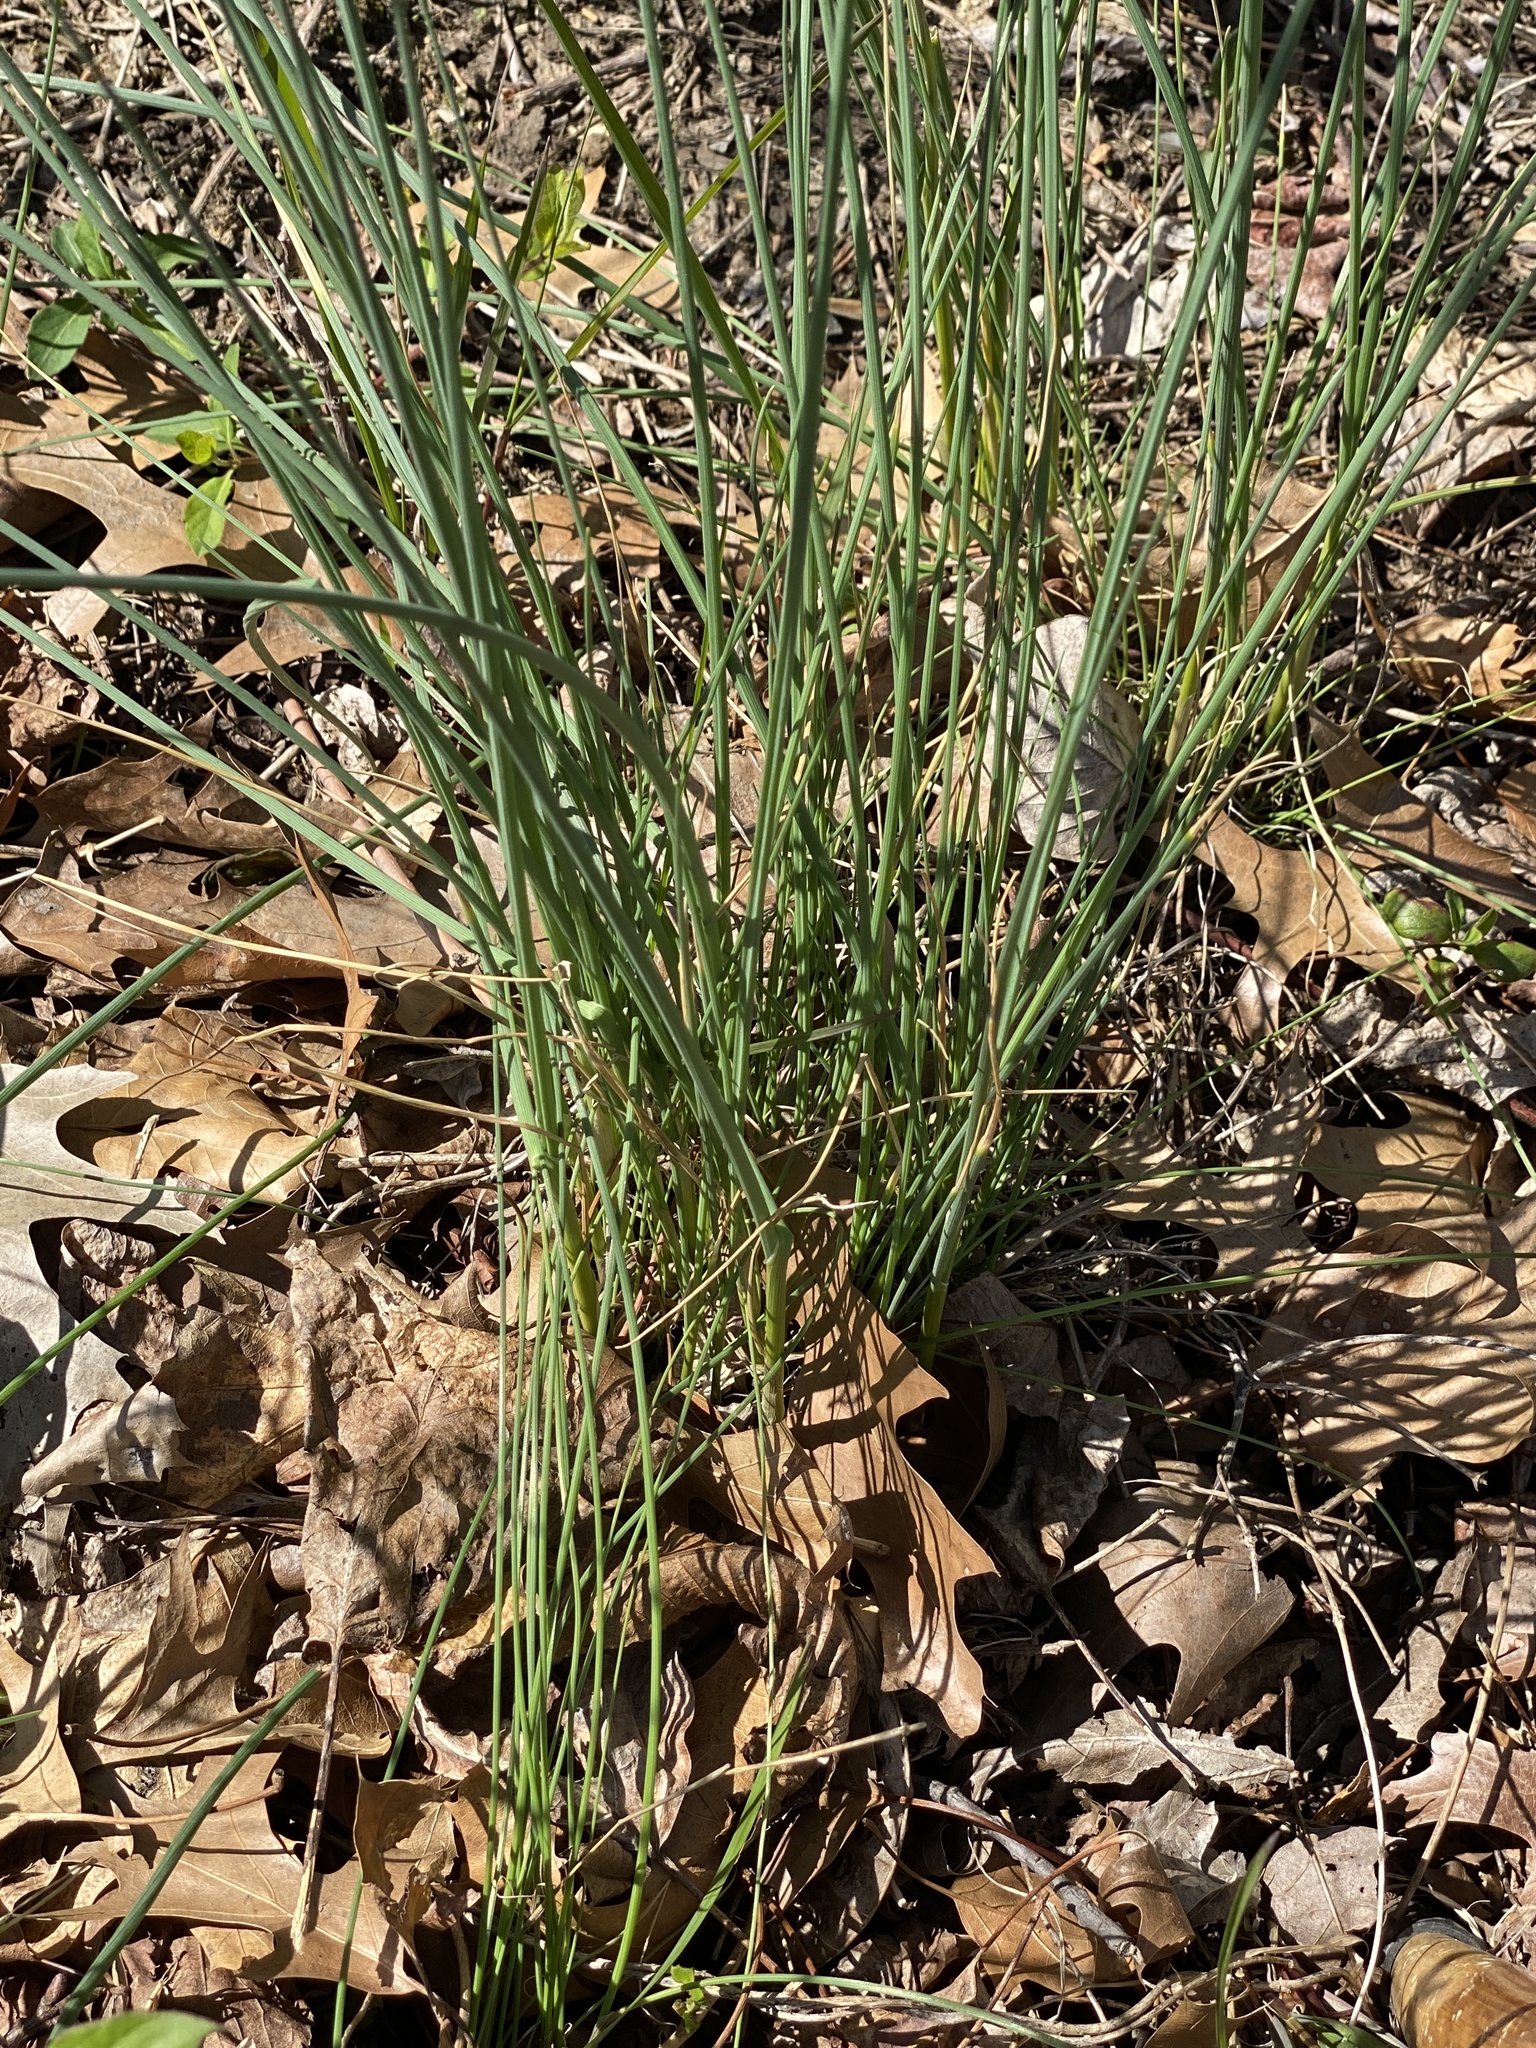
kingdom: Plantae
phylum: Tracheophyta
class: Liliopsida
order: Asparagales
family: Amaryllidaceae
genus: Allium
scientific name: Allium vineale
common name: Crow garlic
